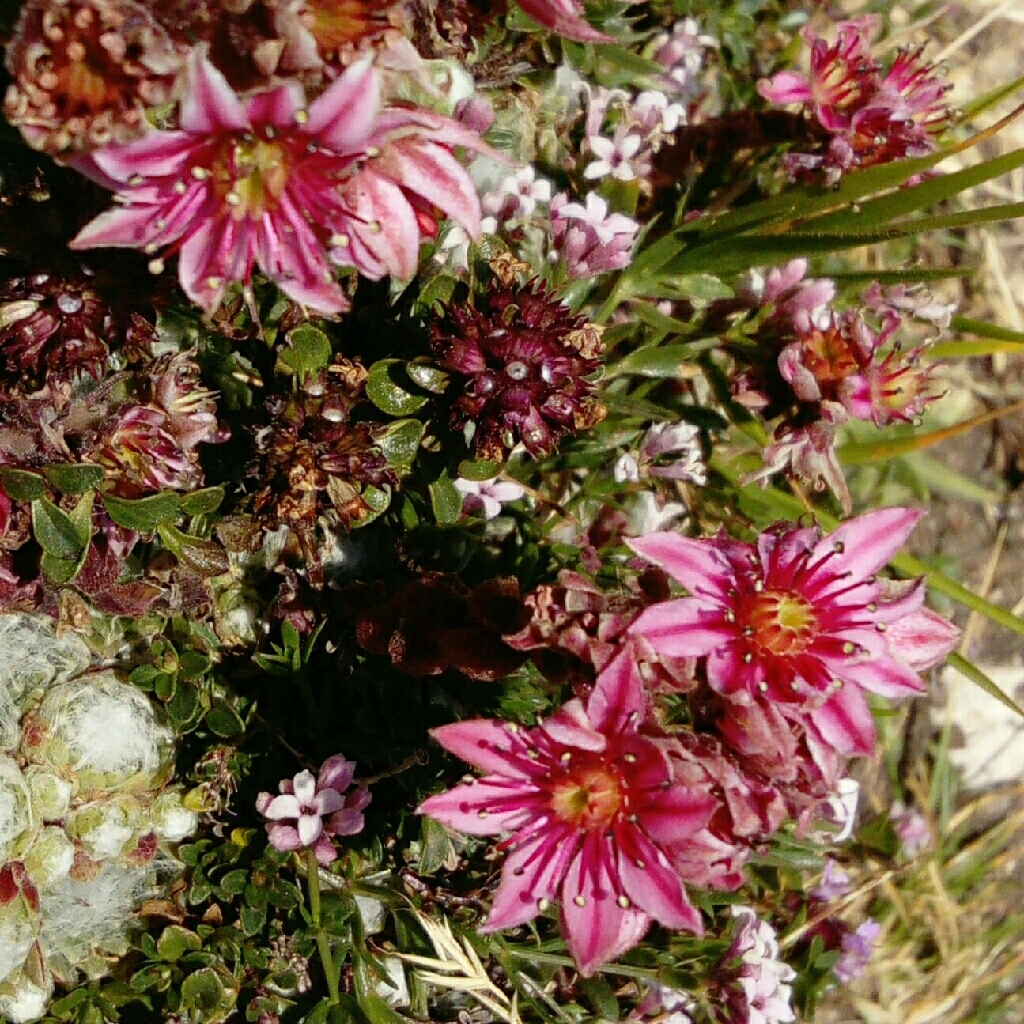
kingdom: Plantae
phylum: Tracheophyta
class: Magnoliopsida
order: Saxifragales
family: Crassulaceae
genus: Sempervivum
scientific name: Sempervivum arachnoideum
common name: Cobweb house-leek
